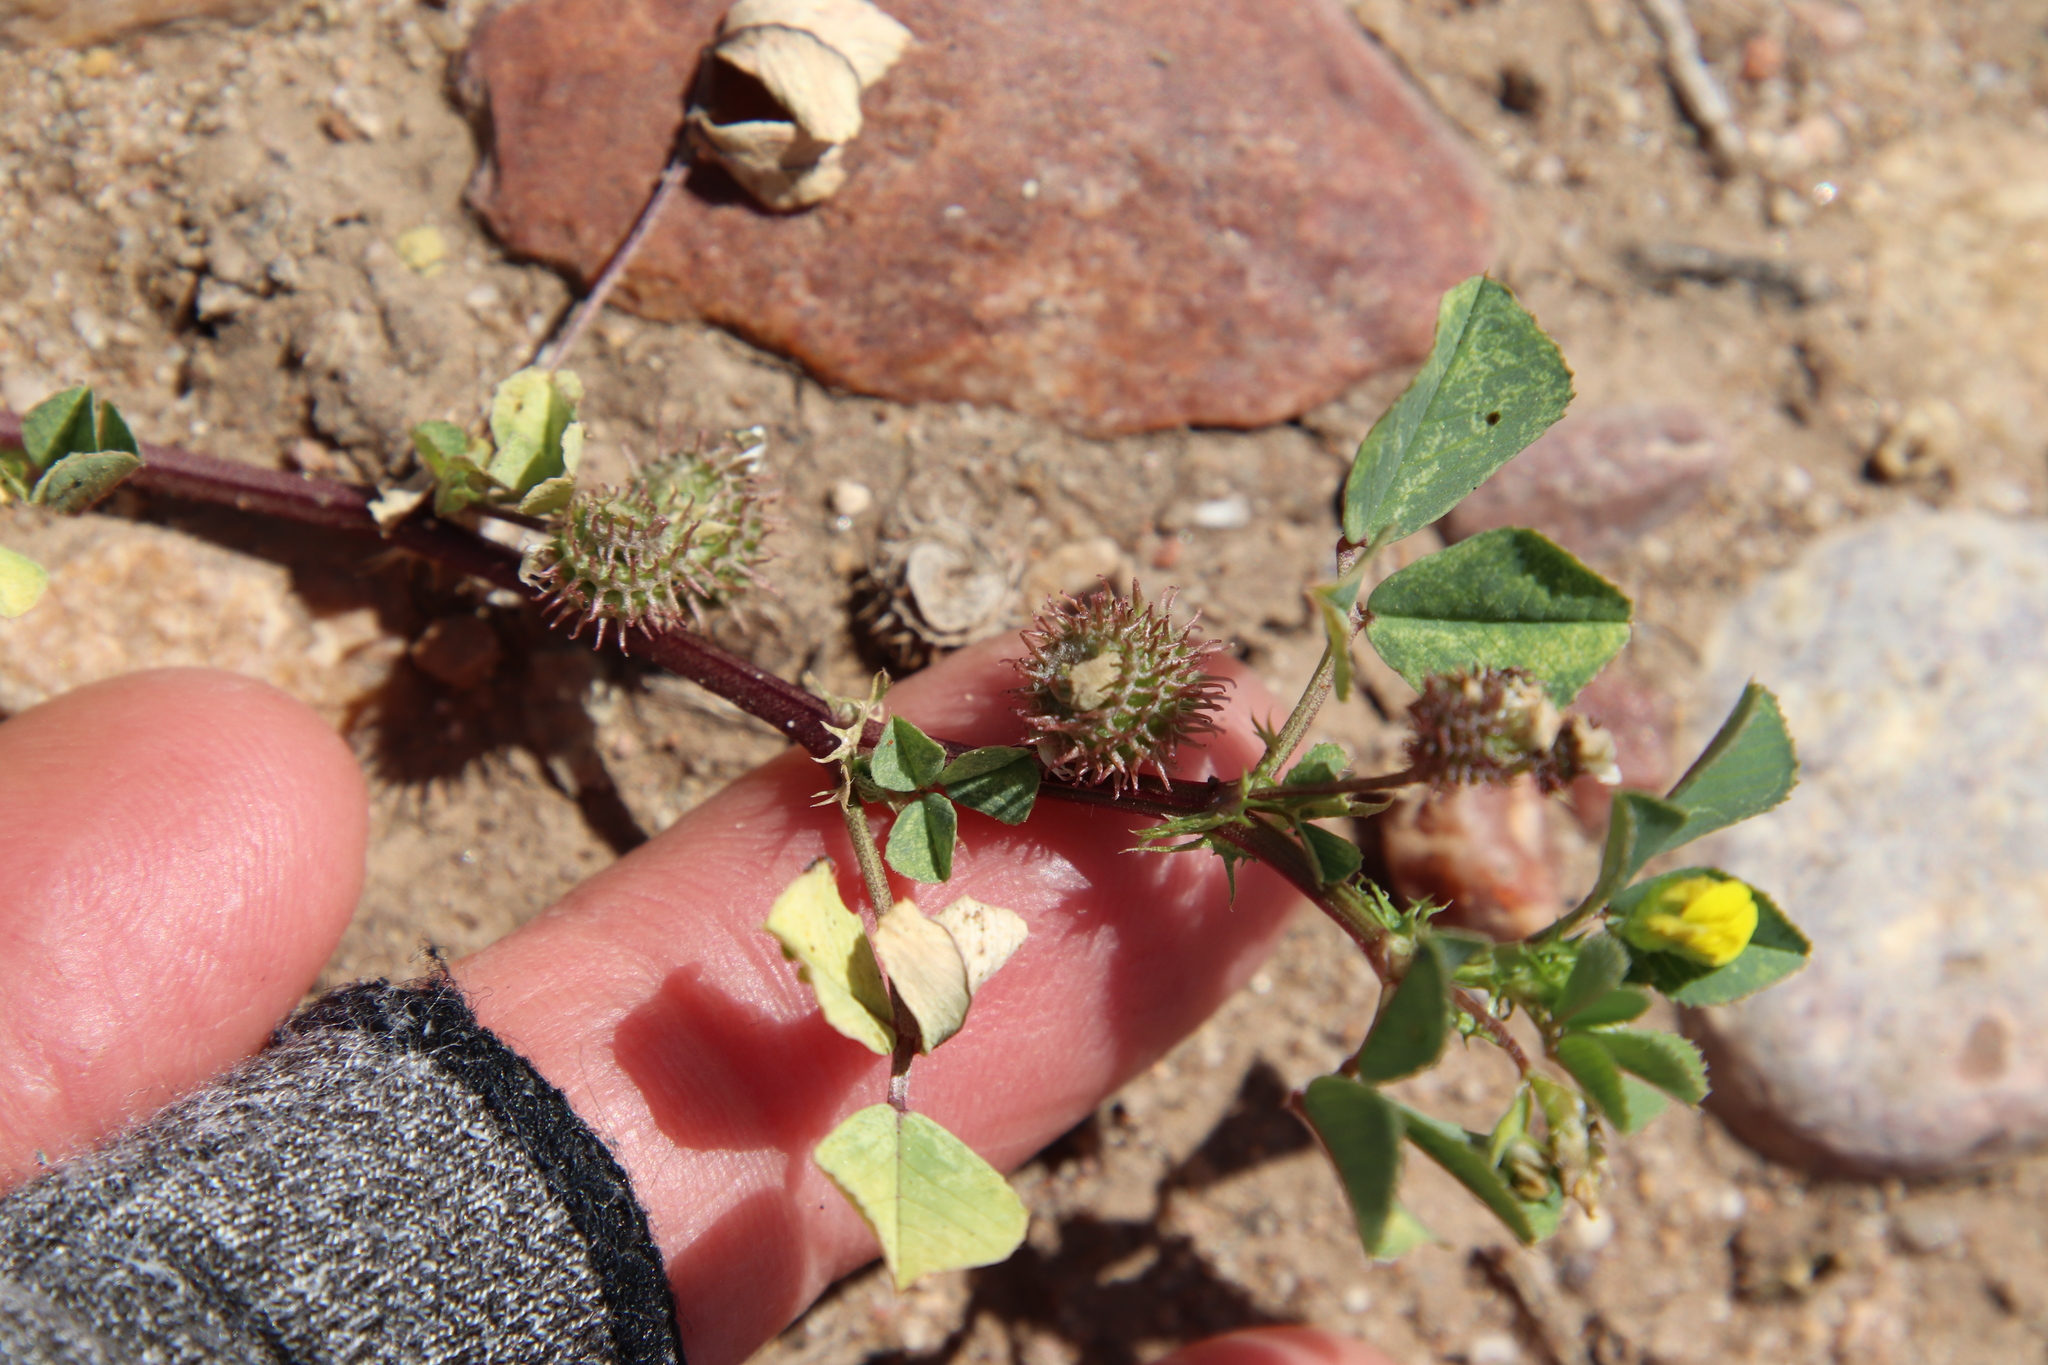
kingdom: Plantae
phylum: Tracheophyta
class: Magnoliopsida
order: Fabales
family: Fabaceae
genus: Medicago
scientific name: Medicago polymorpha
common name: Burclover
